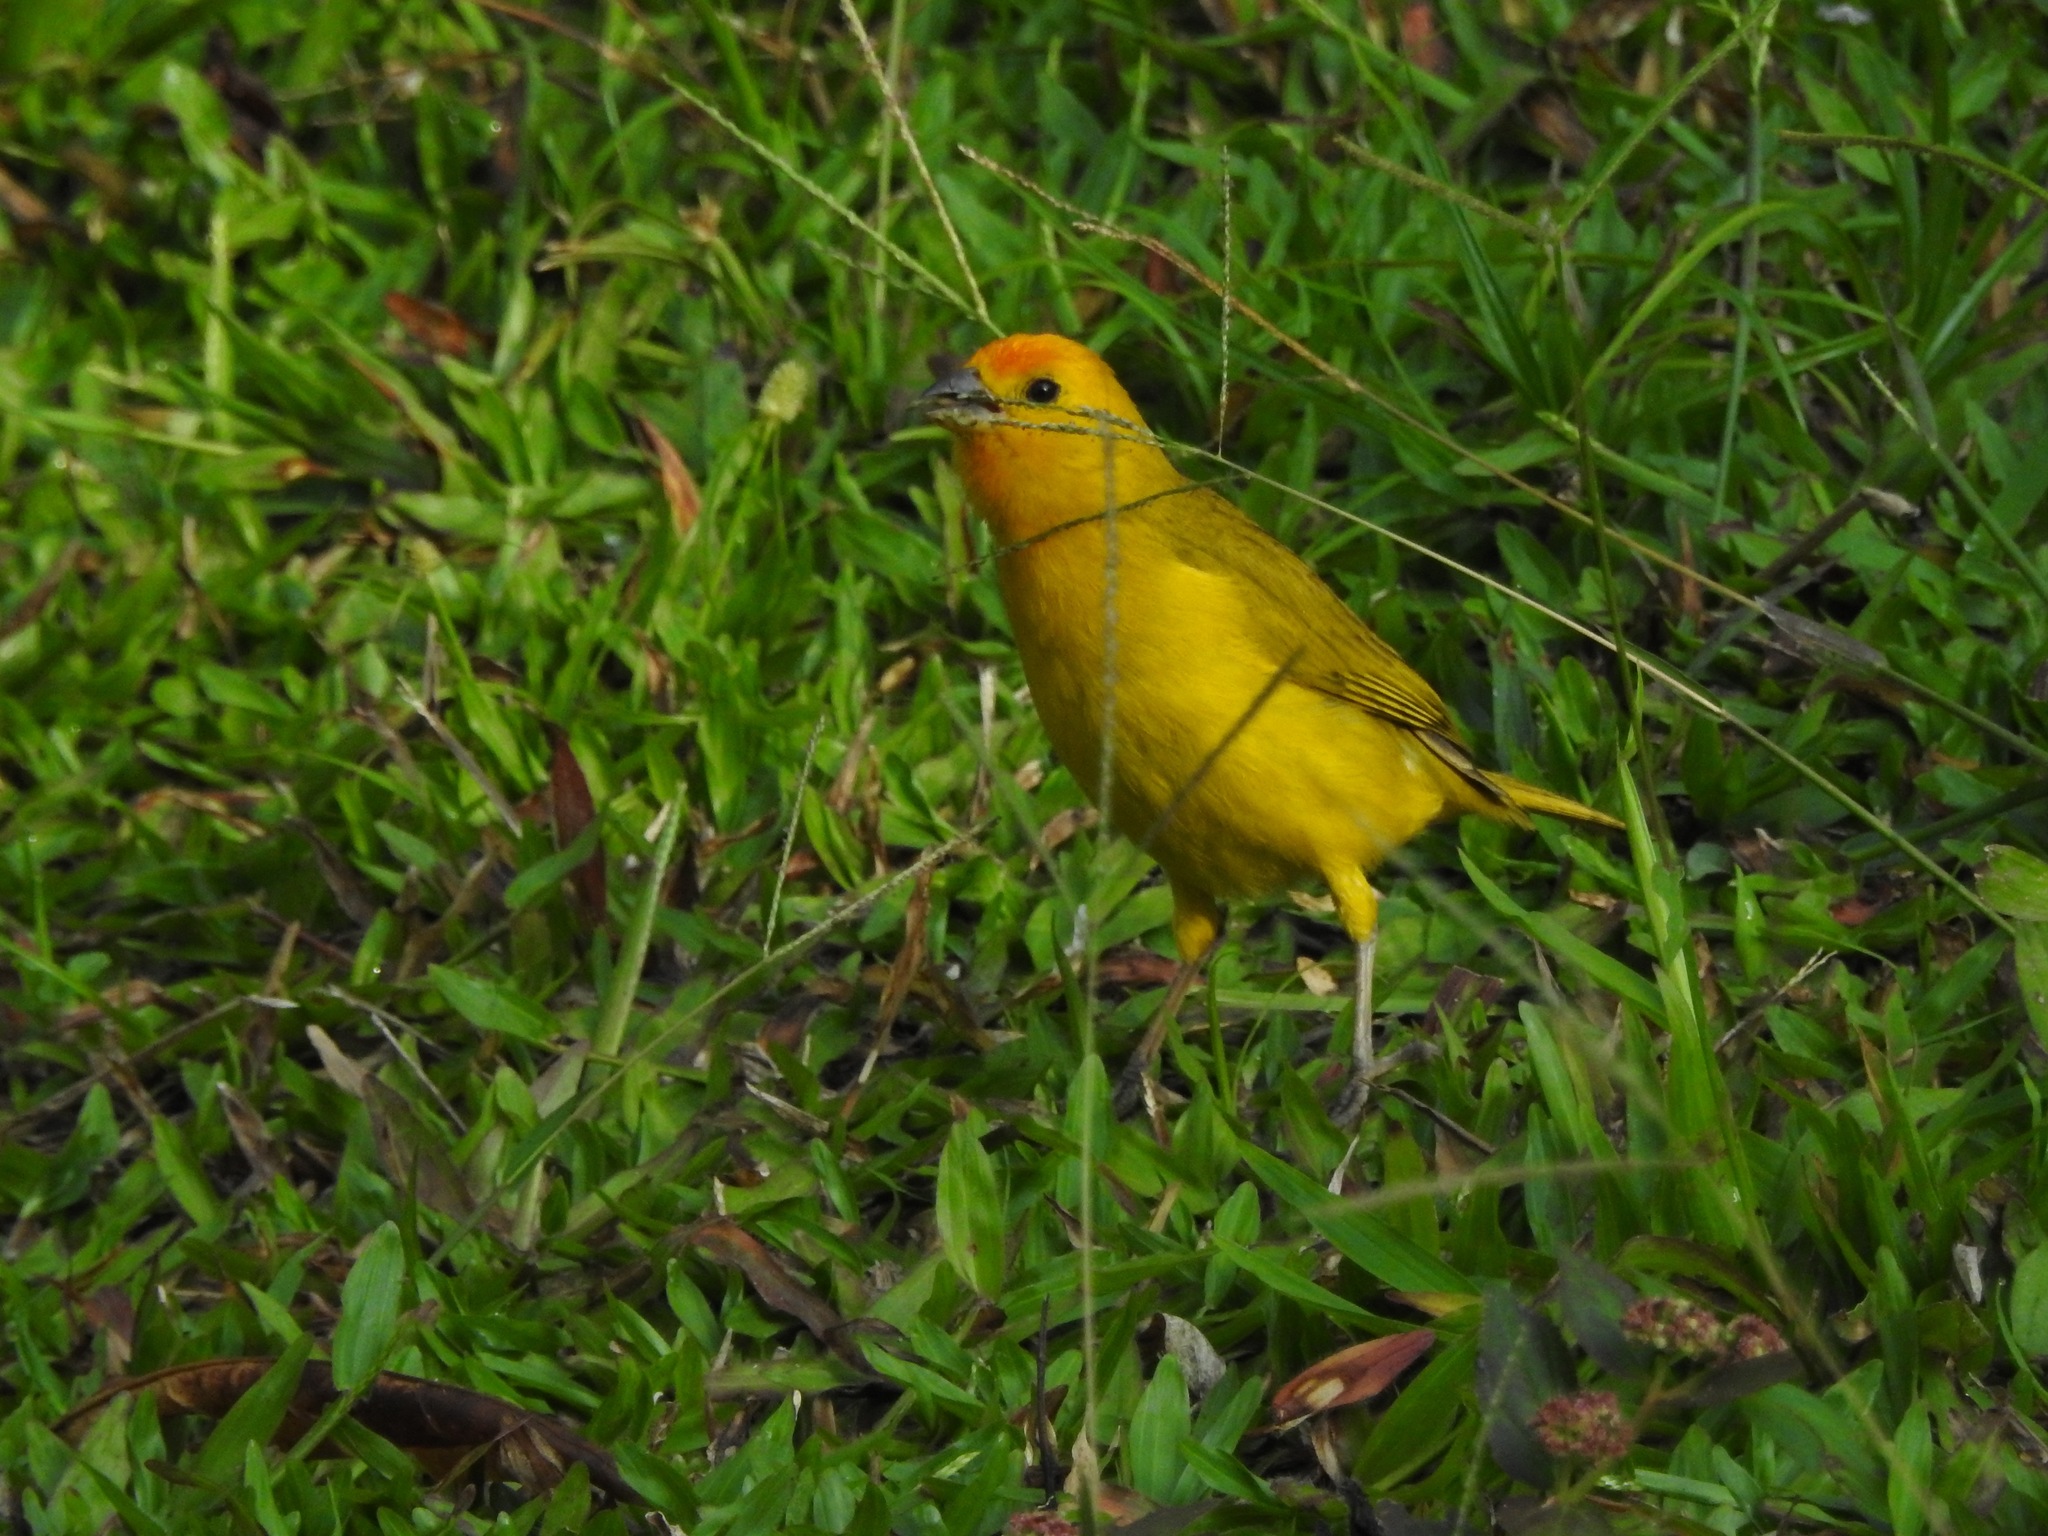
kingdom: Animalia
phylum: Chordata
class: Aves
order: Passeriformes
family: Thraupidae
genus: Sicalis
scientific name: Sicalis flaveola
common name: Saffron finch
